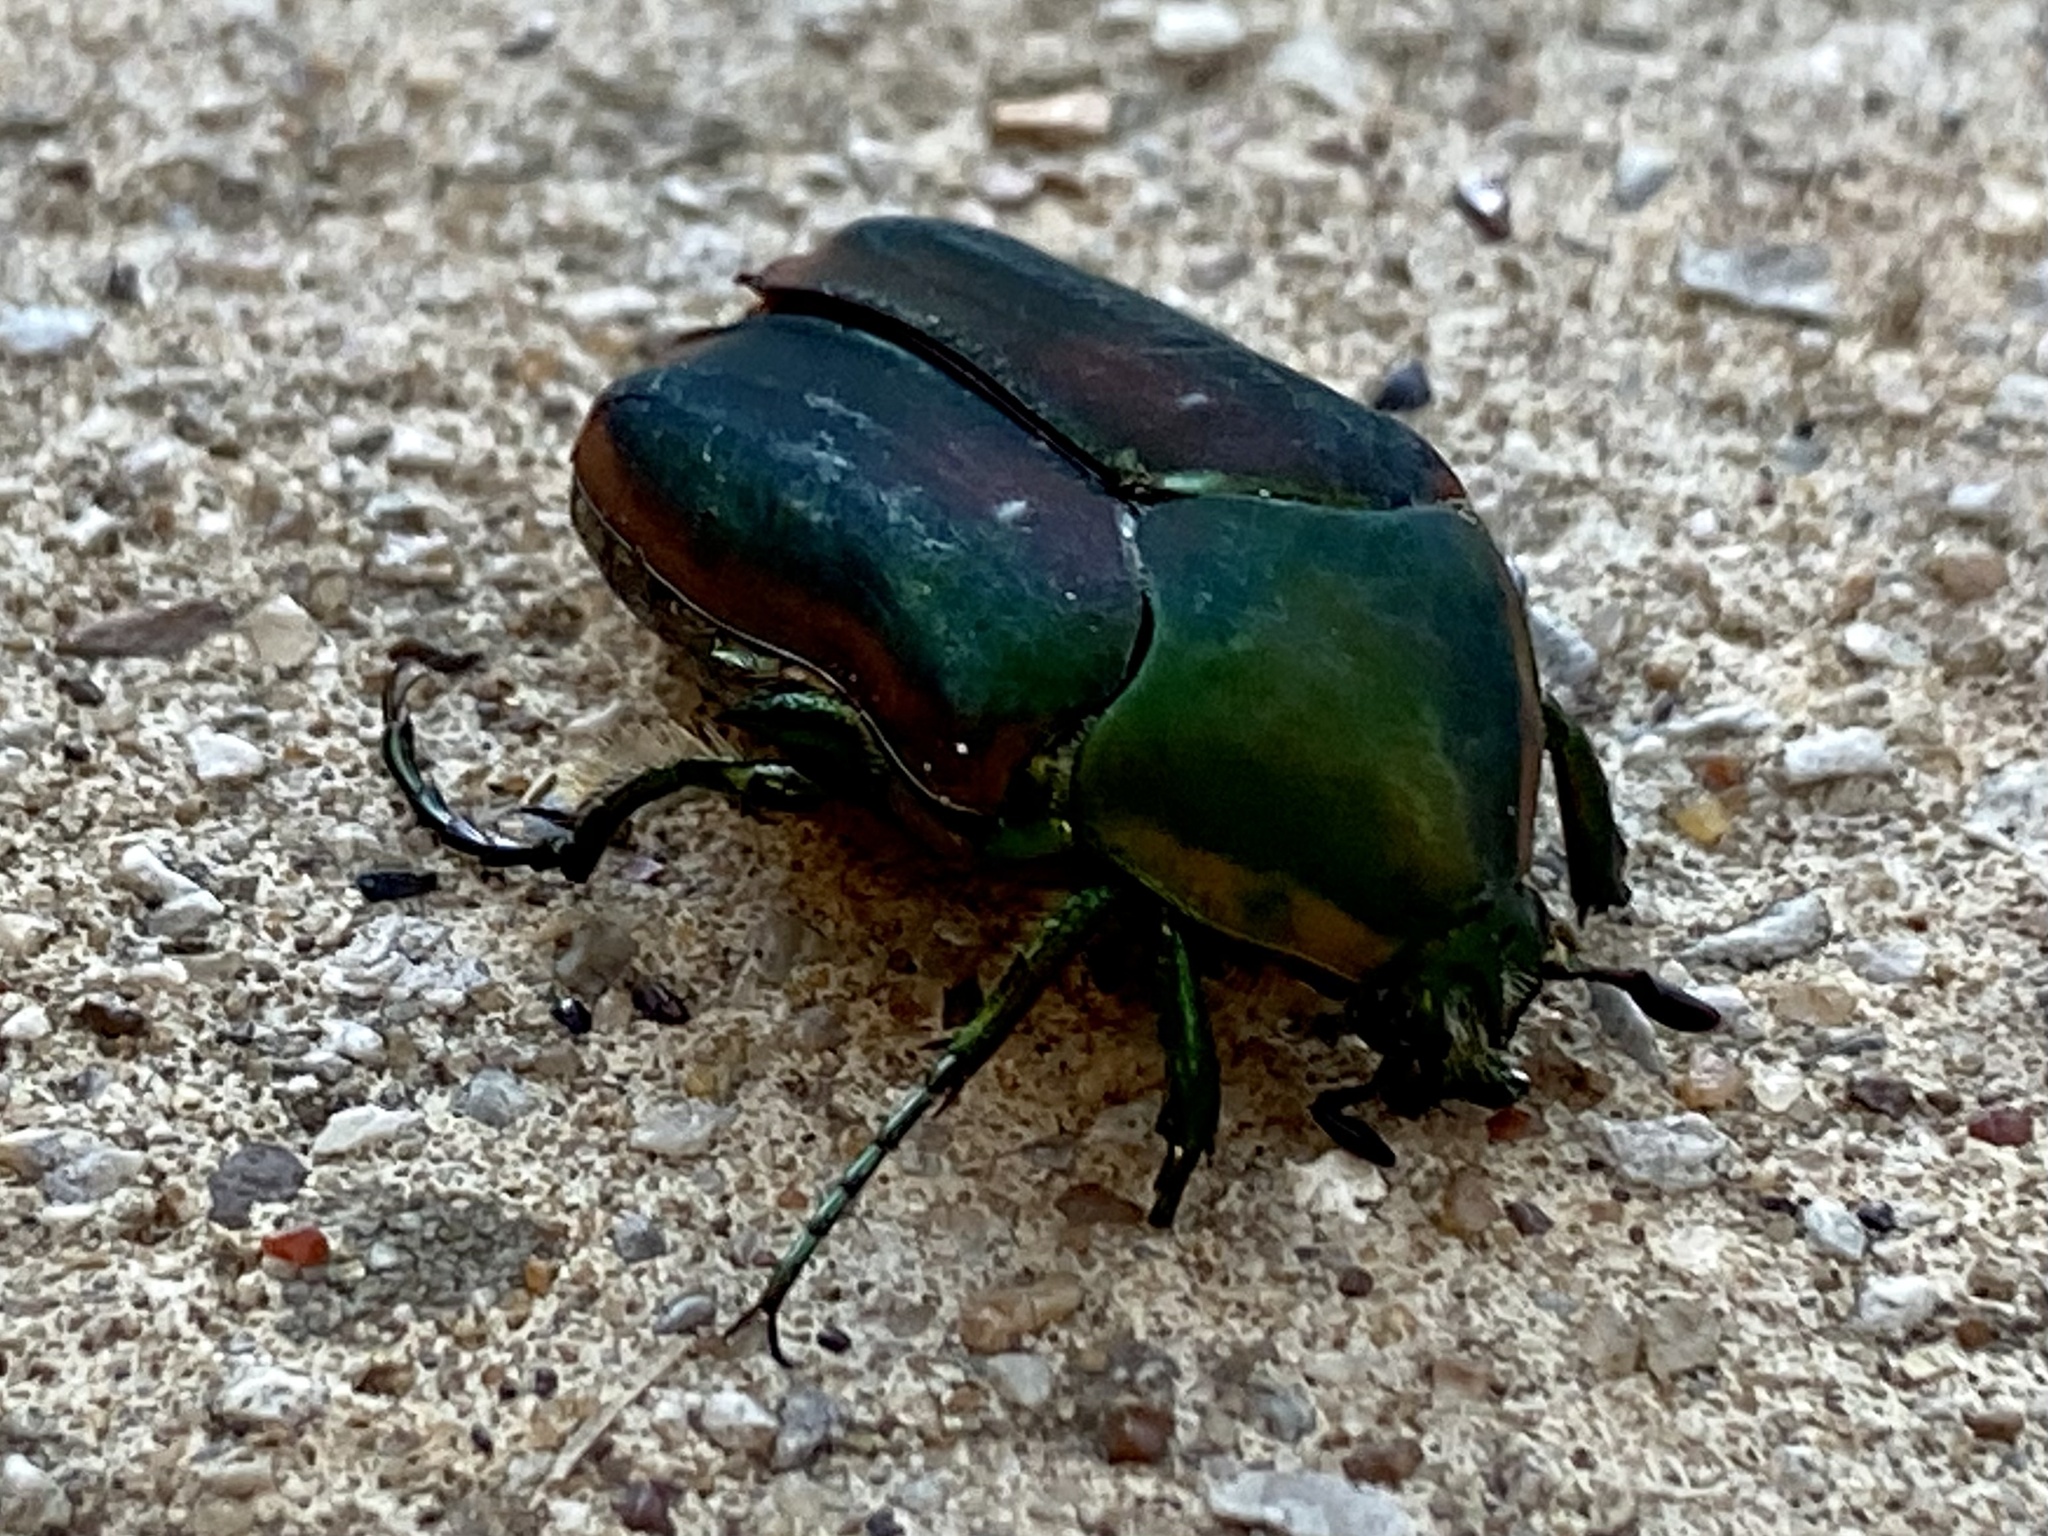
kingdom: Animalia
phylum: Arthropoda
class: Insecta
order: Coleoptera
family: Scarabaeidae
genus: Cotinis
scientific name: Cotinis nitida
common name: Common green june beetle
